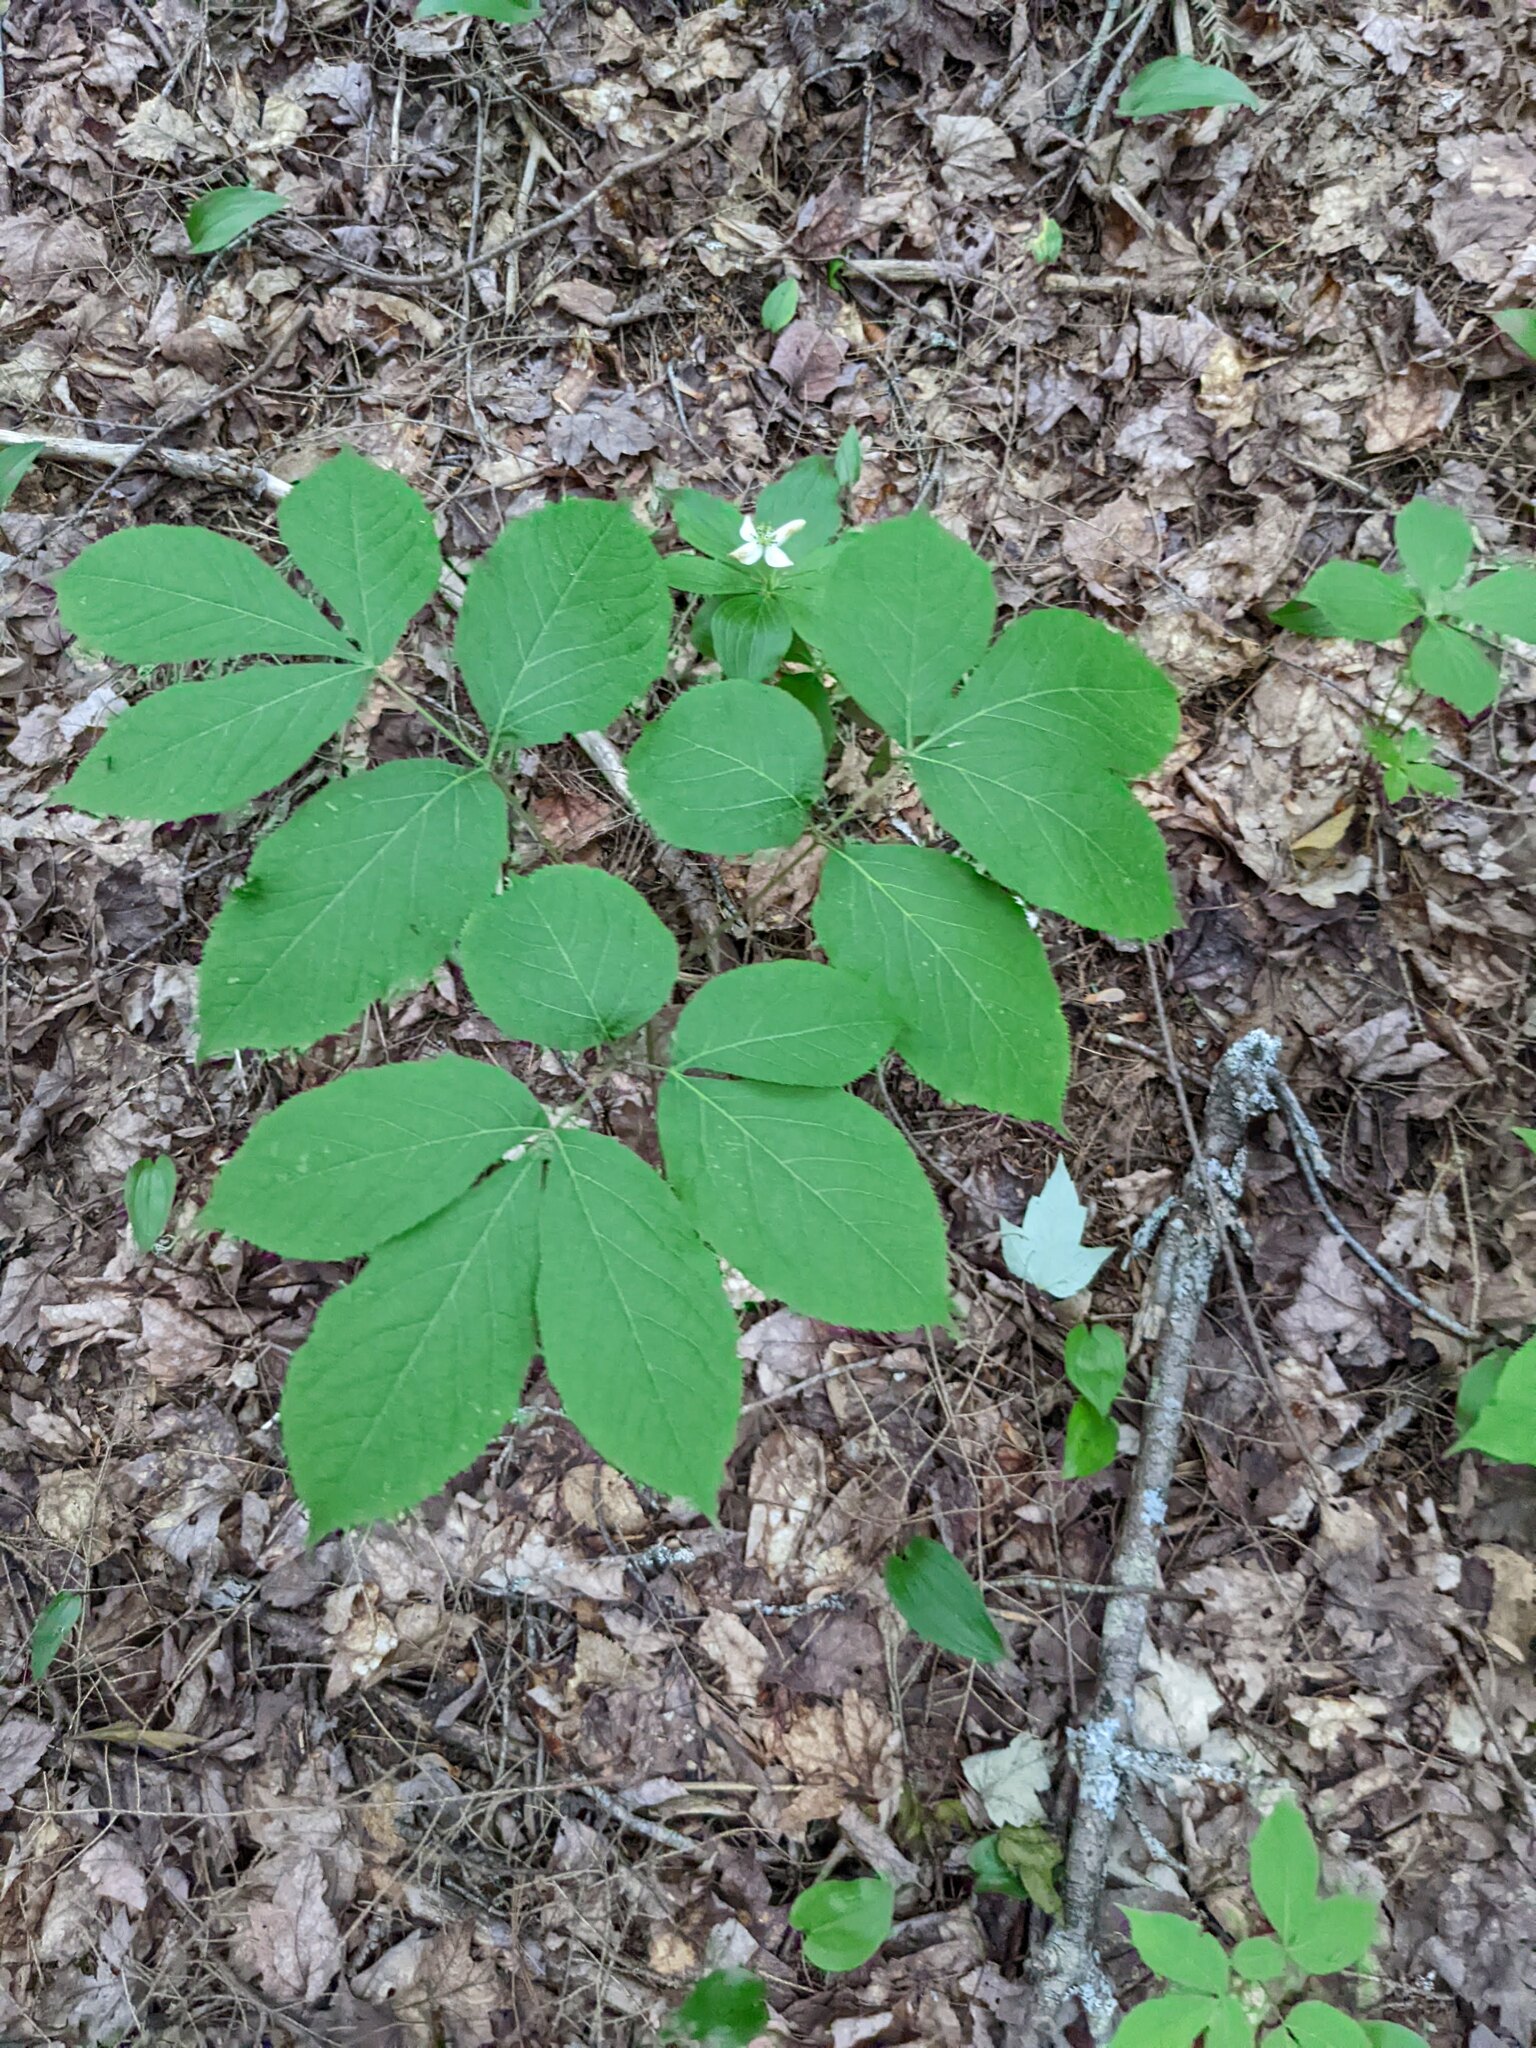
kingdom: Plantae
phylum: Tracheophyta
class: Magnoliopsida
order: Apiales
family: Araliaceae
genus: Aralia
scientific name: Aralia nudicaulis
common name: Wild sarsaparilla
